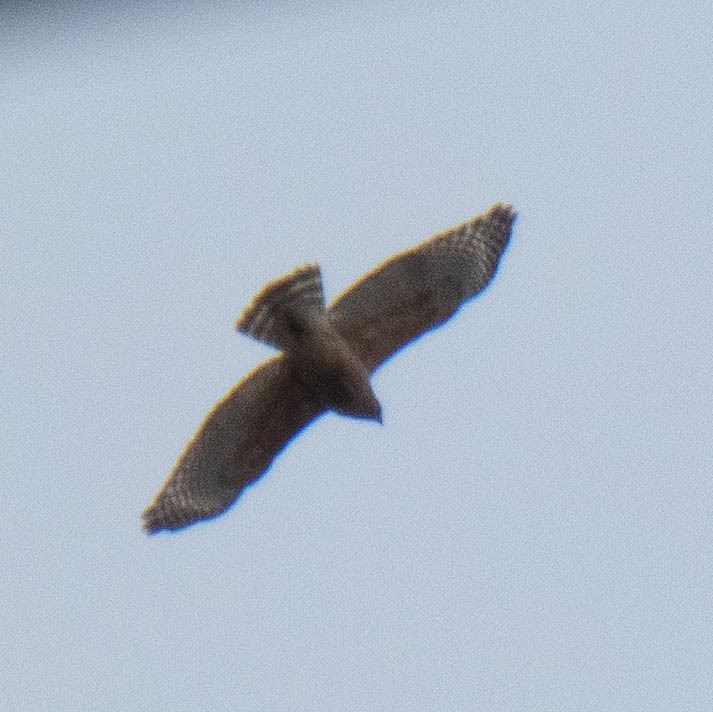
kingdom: Animalia
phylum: Chordata
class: Aves
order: Accipitriformes
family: Accipitridae
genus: Buteo
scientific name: Buteo lineatus
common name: Red-shouldered hawk
